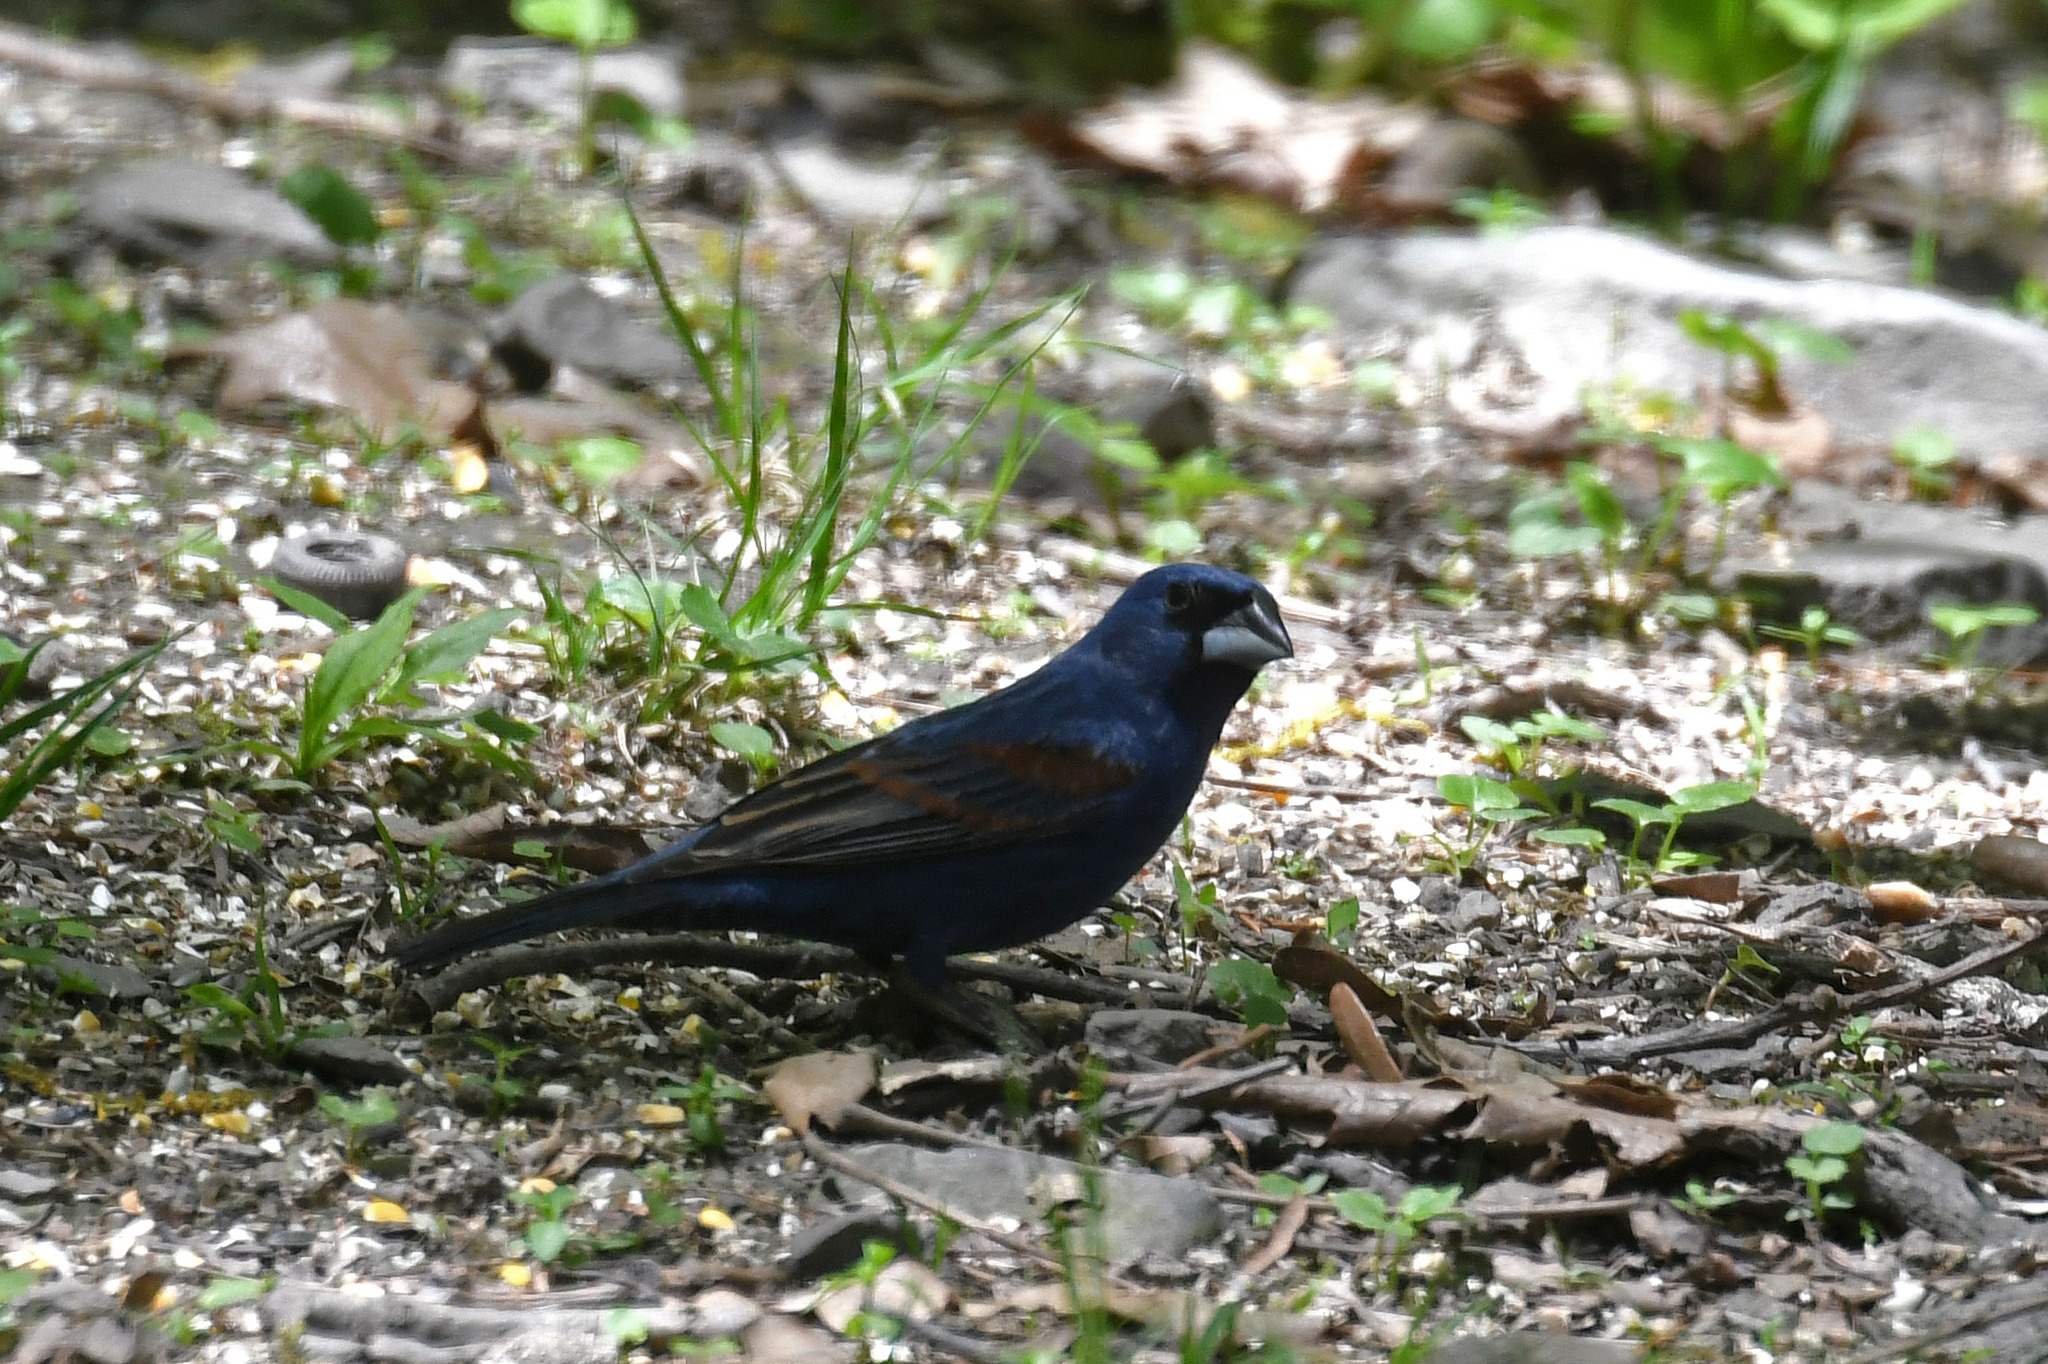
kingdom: Animalia
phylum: Chordata
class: Aves
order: Passeriformes
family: Cardinalidae
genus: Passerina
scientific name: Passerina caerulea
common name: Blue grosbeak
